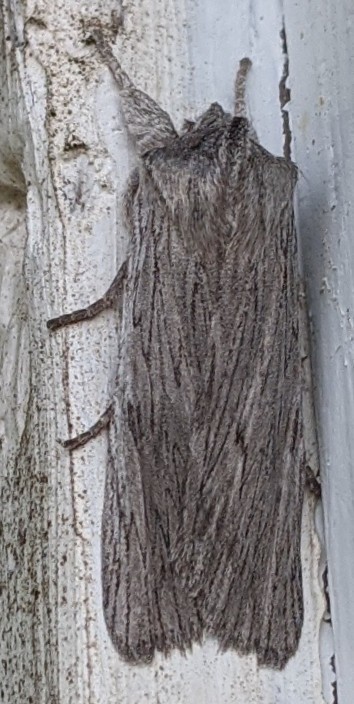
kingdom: Animalia
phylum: Arthropoda
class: Insecta
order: Lepidoptera
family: Noctuidae
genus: Lithophane
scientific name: Lithophane fagina
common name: Hoary pinion moth
